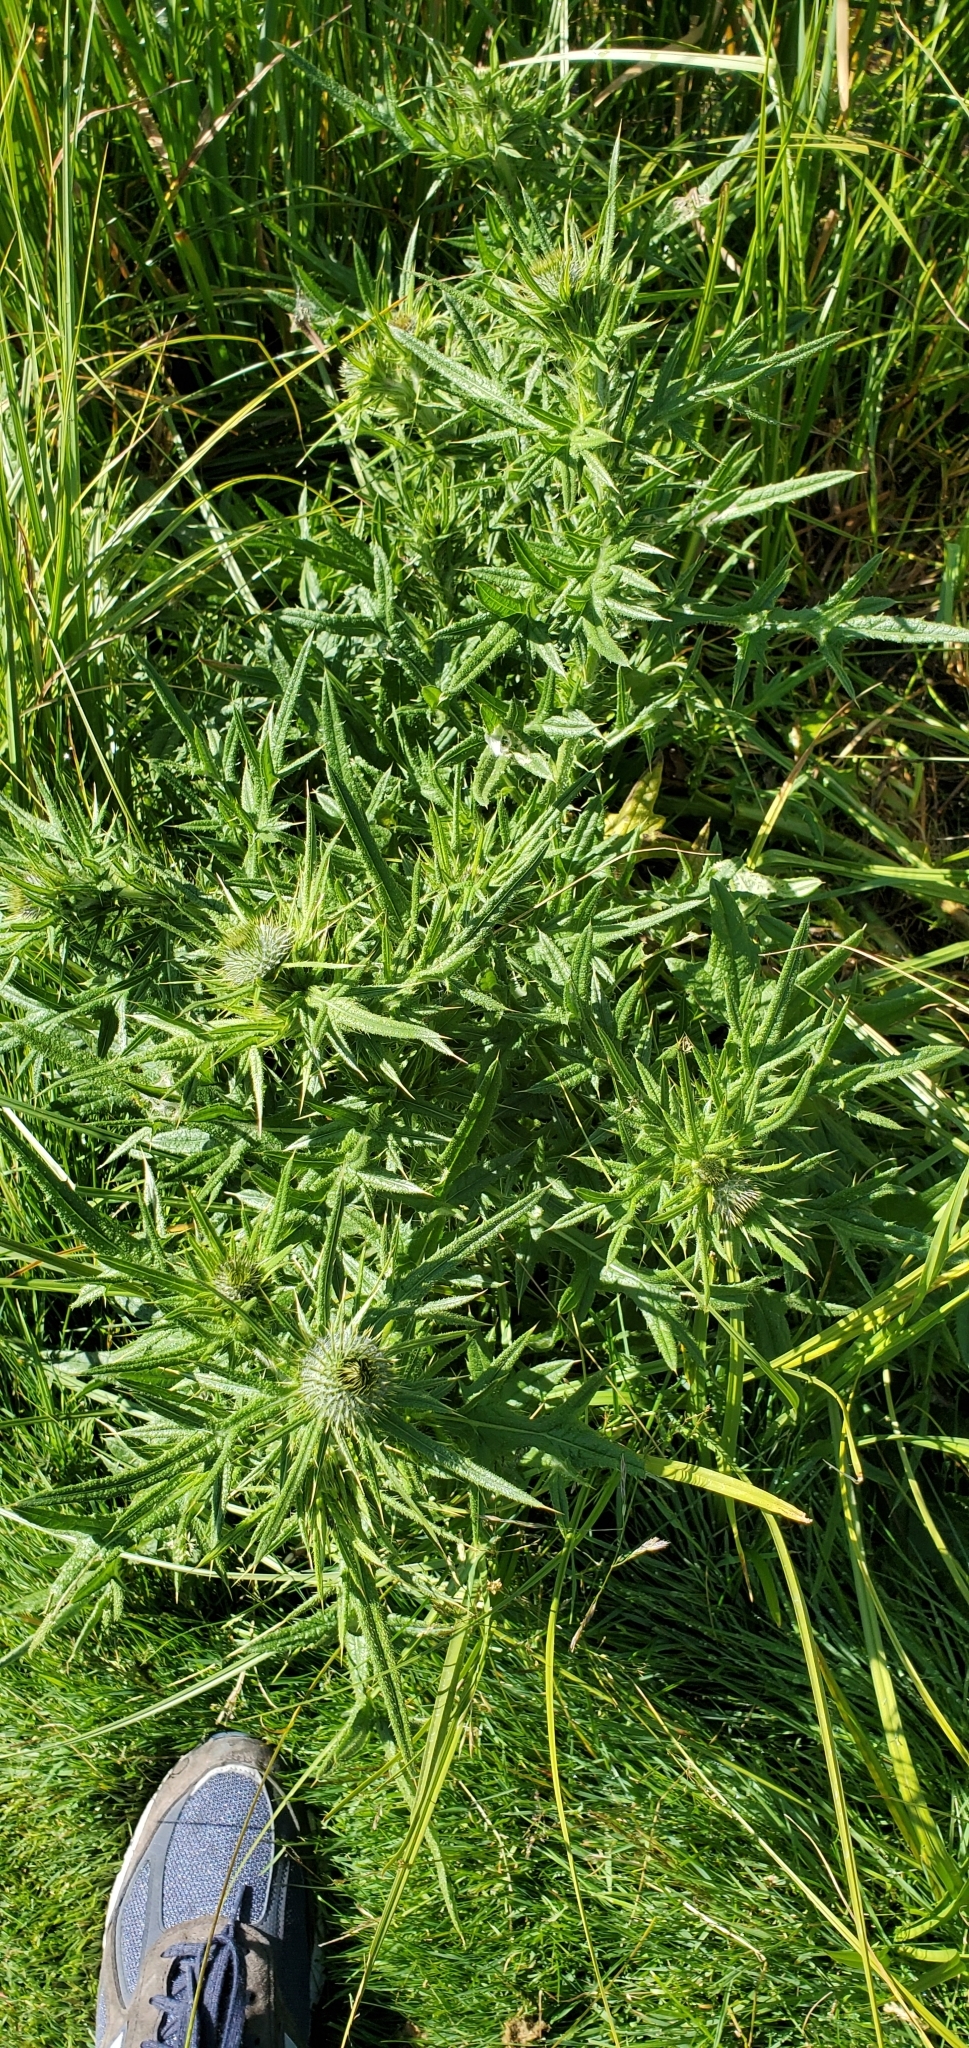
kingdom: Plantae
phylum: Tracheophyta
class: Magnoliopsida
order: Asterales
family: Asteraceae
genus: Cirsium
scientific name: Cirsium vulgare
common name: Bull thistle
